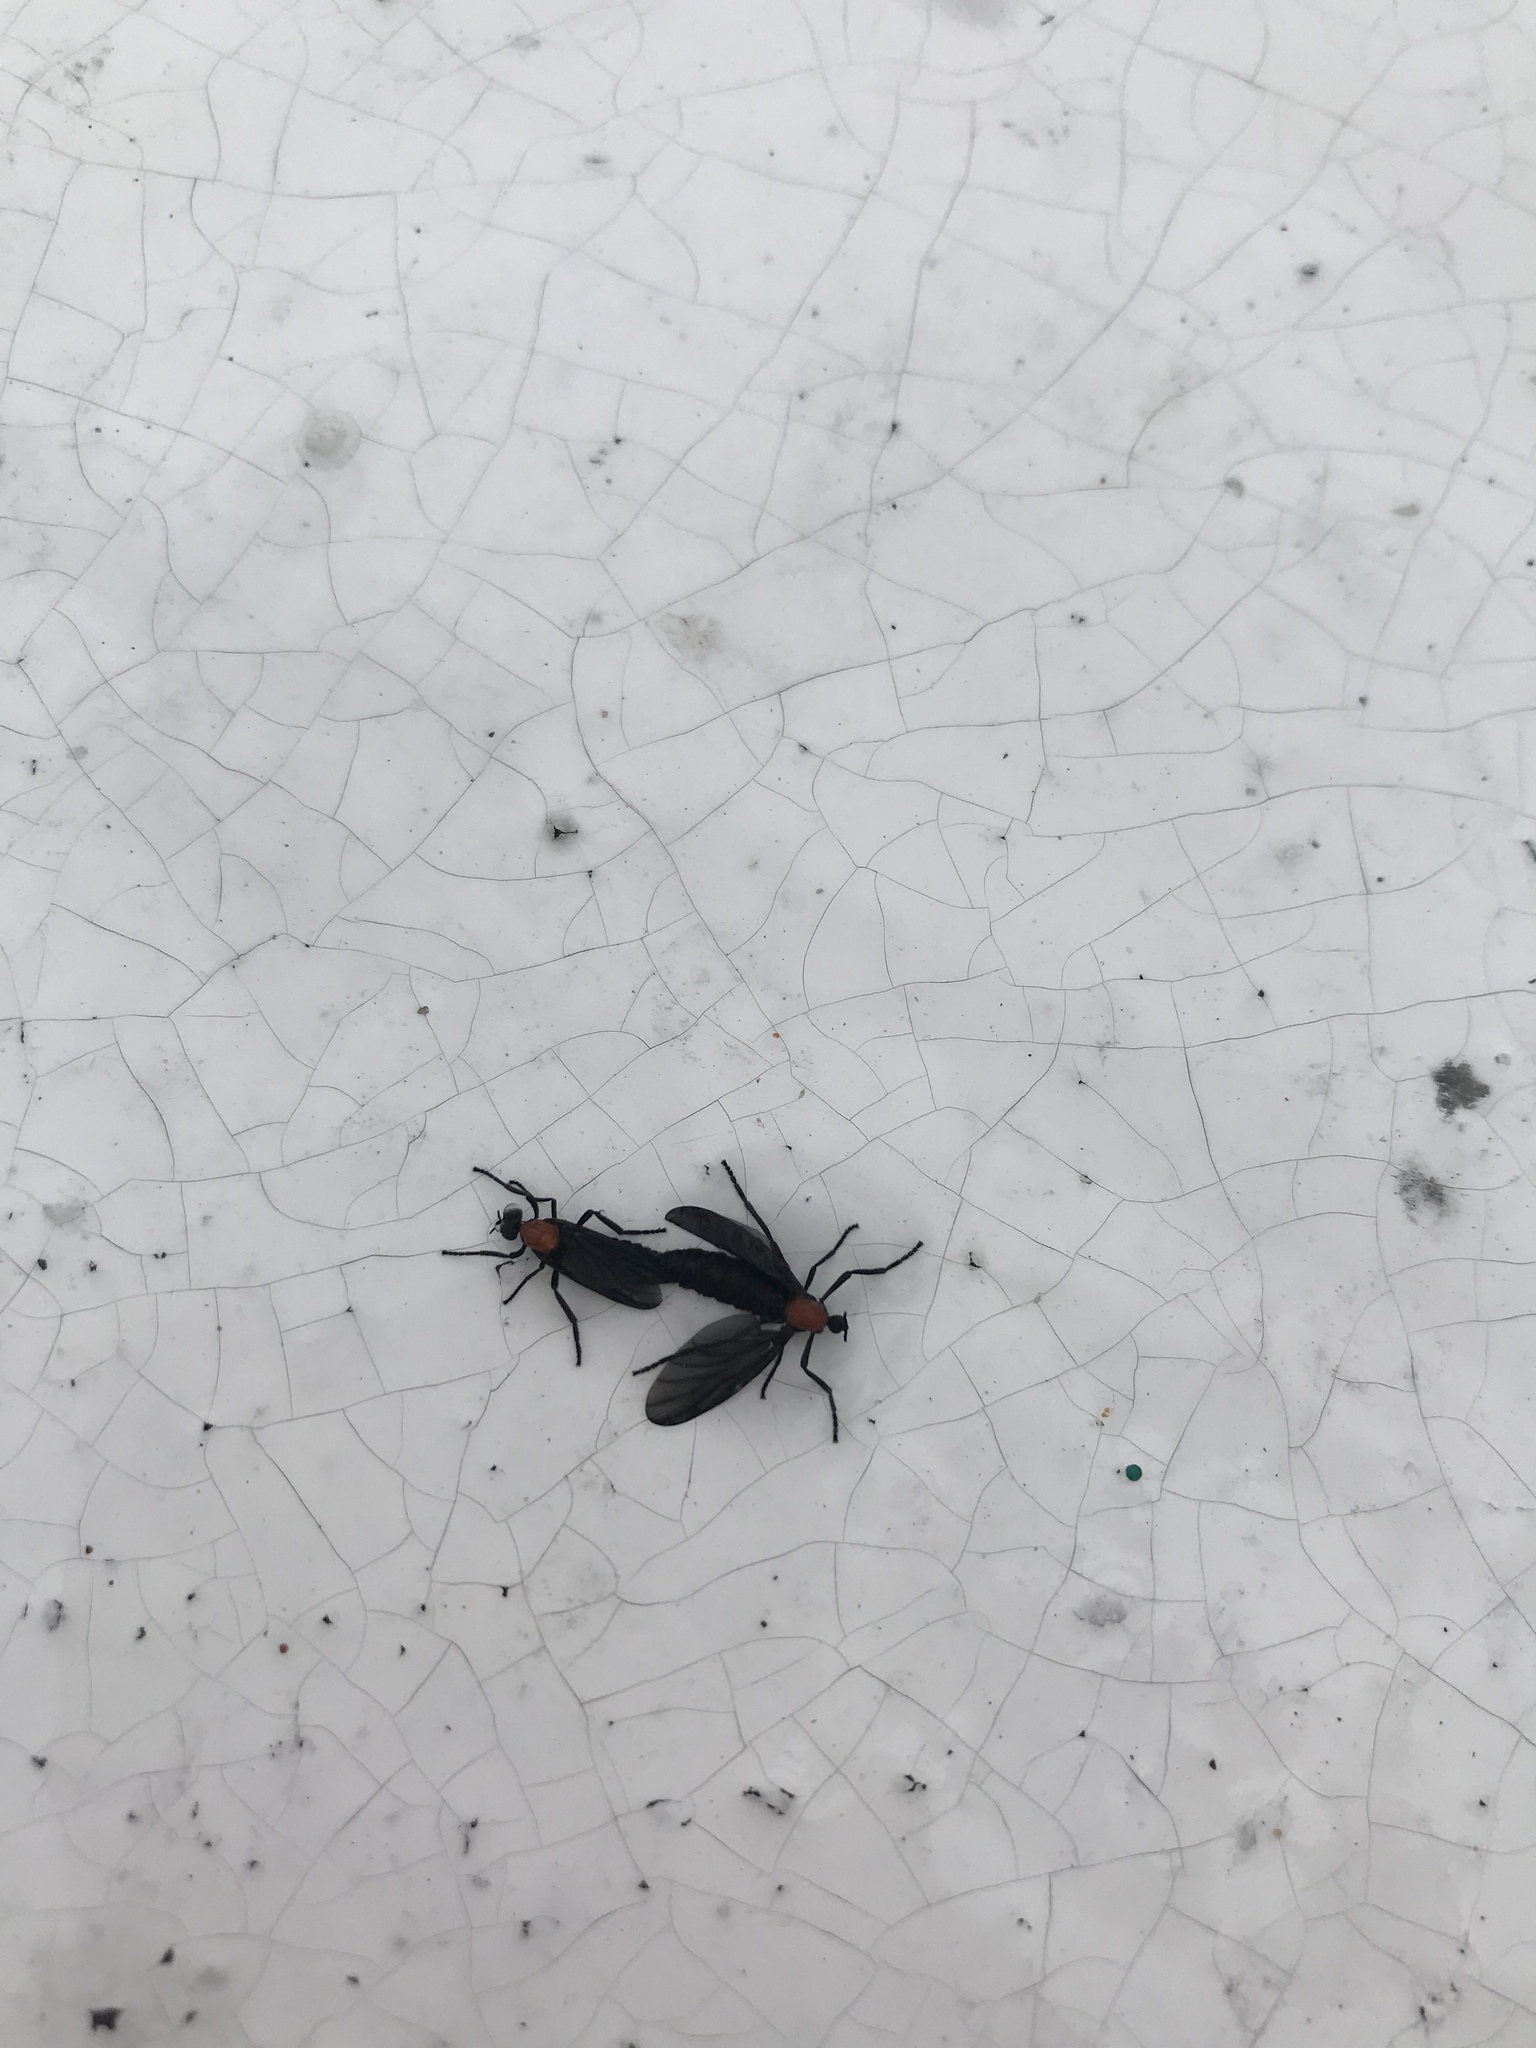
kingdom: Animalia
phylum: Arthropoda
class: Insecta
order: Diptera
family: Bibionidae
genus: Plecia
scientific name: Plecia nearctica
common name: March fly
